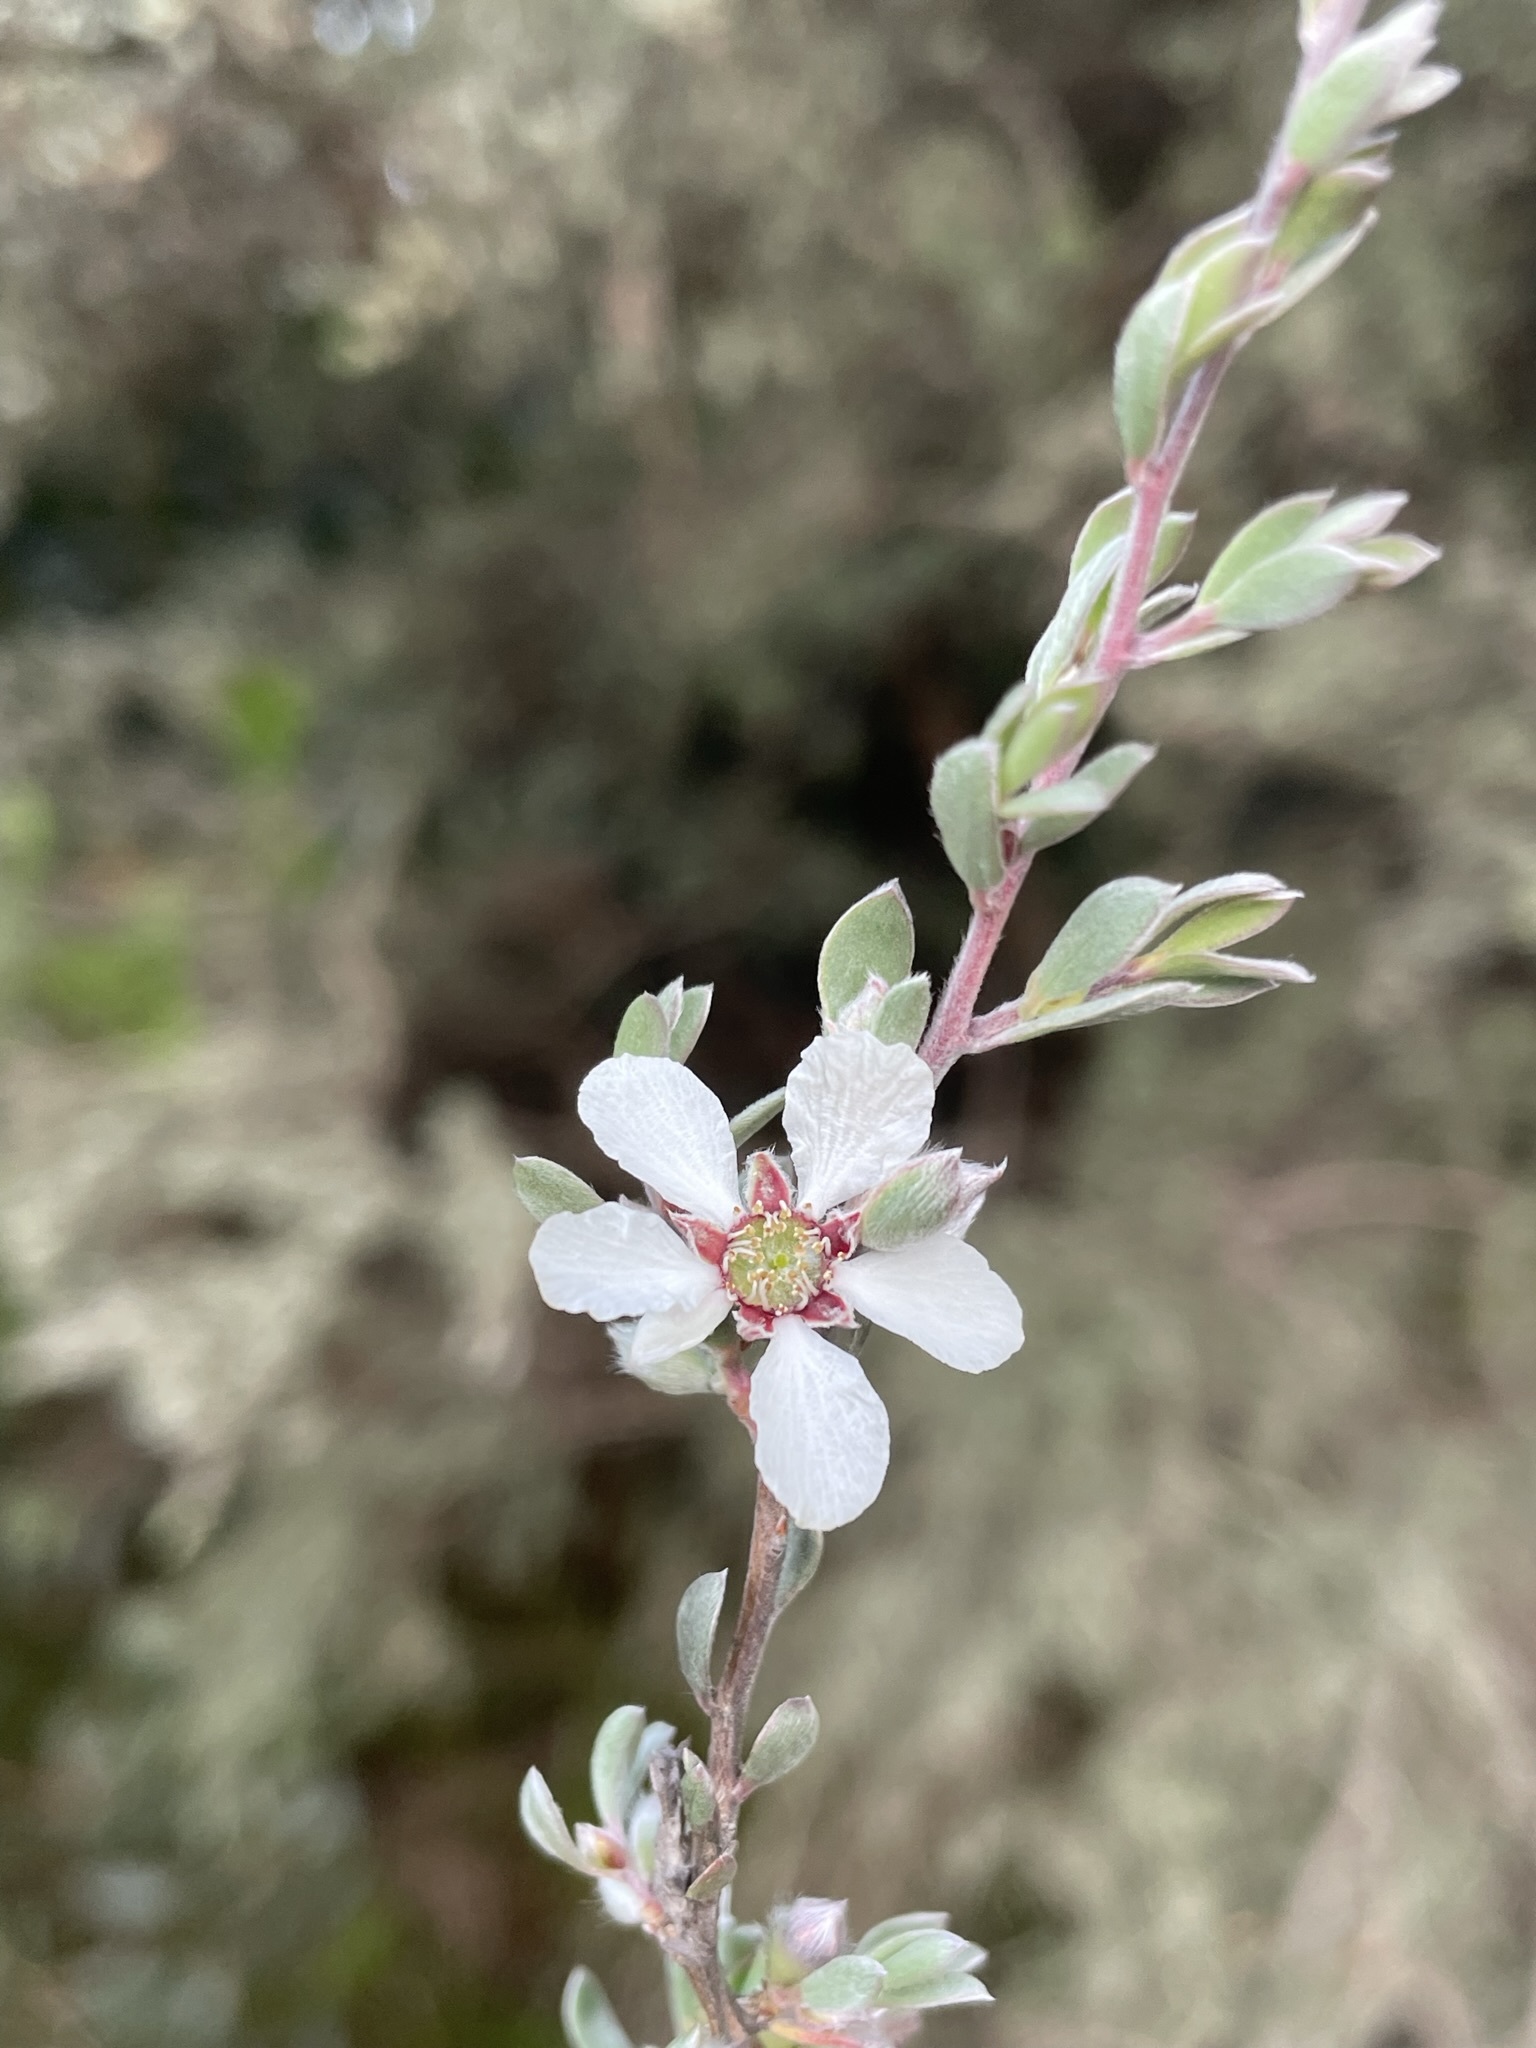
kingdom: Plantae
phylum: Tracheophyta
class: Magnoliopsida
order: Myrtales
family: Myrtaceae
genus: Leptospermum
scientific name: Leptospermum lanigerum
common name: Woolly tea-tree
